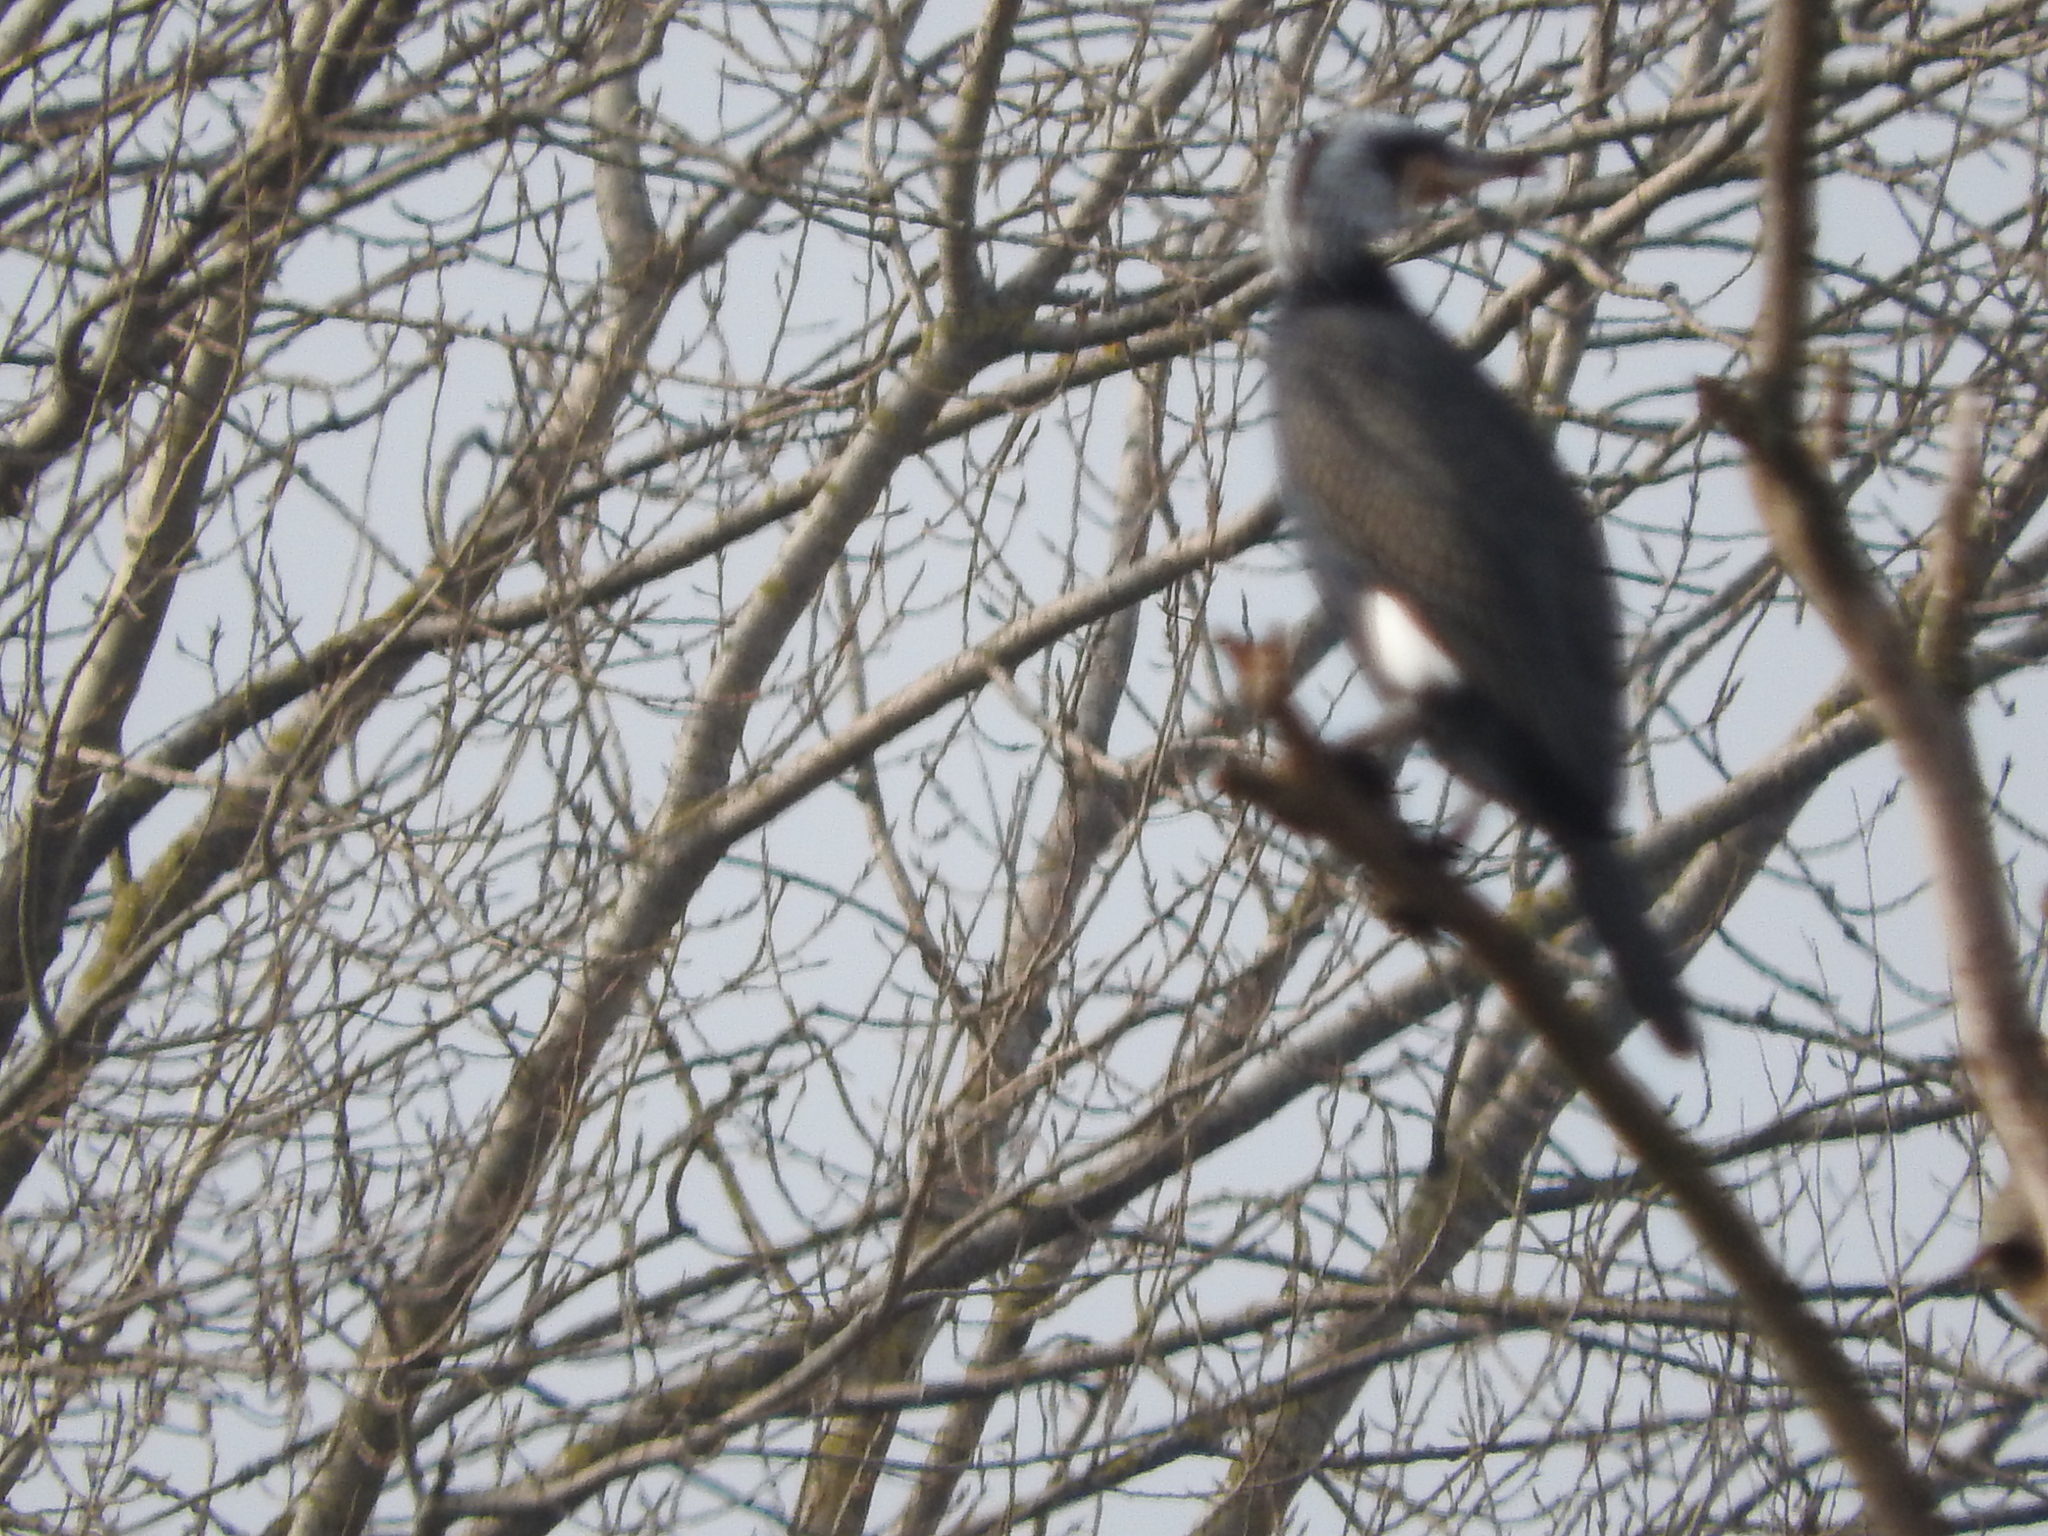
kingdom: Animalia
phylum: Chordata
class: Aves
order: Suliformes
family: Phalacrocoracidae
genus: Phalacrocorax
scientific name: Phalacrocorax carbo
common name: Great cormorant
